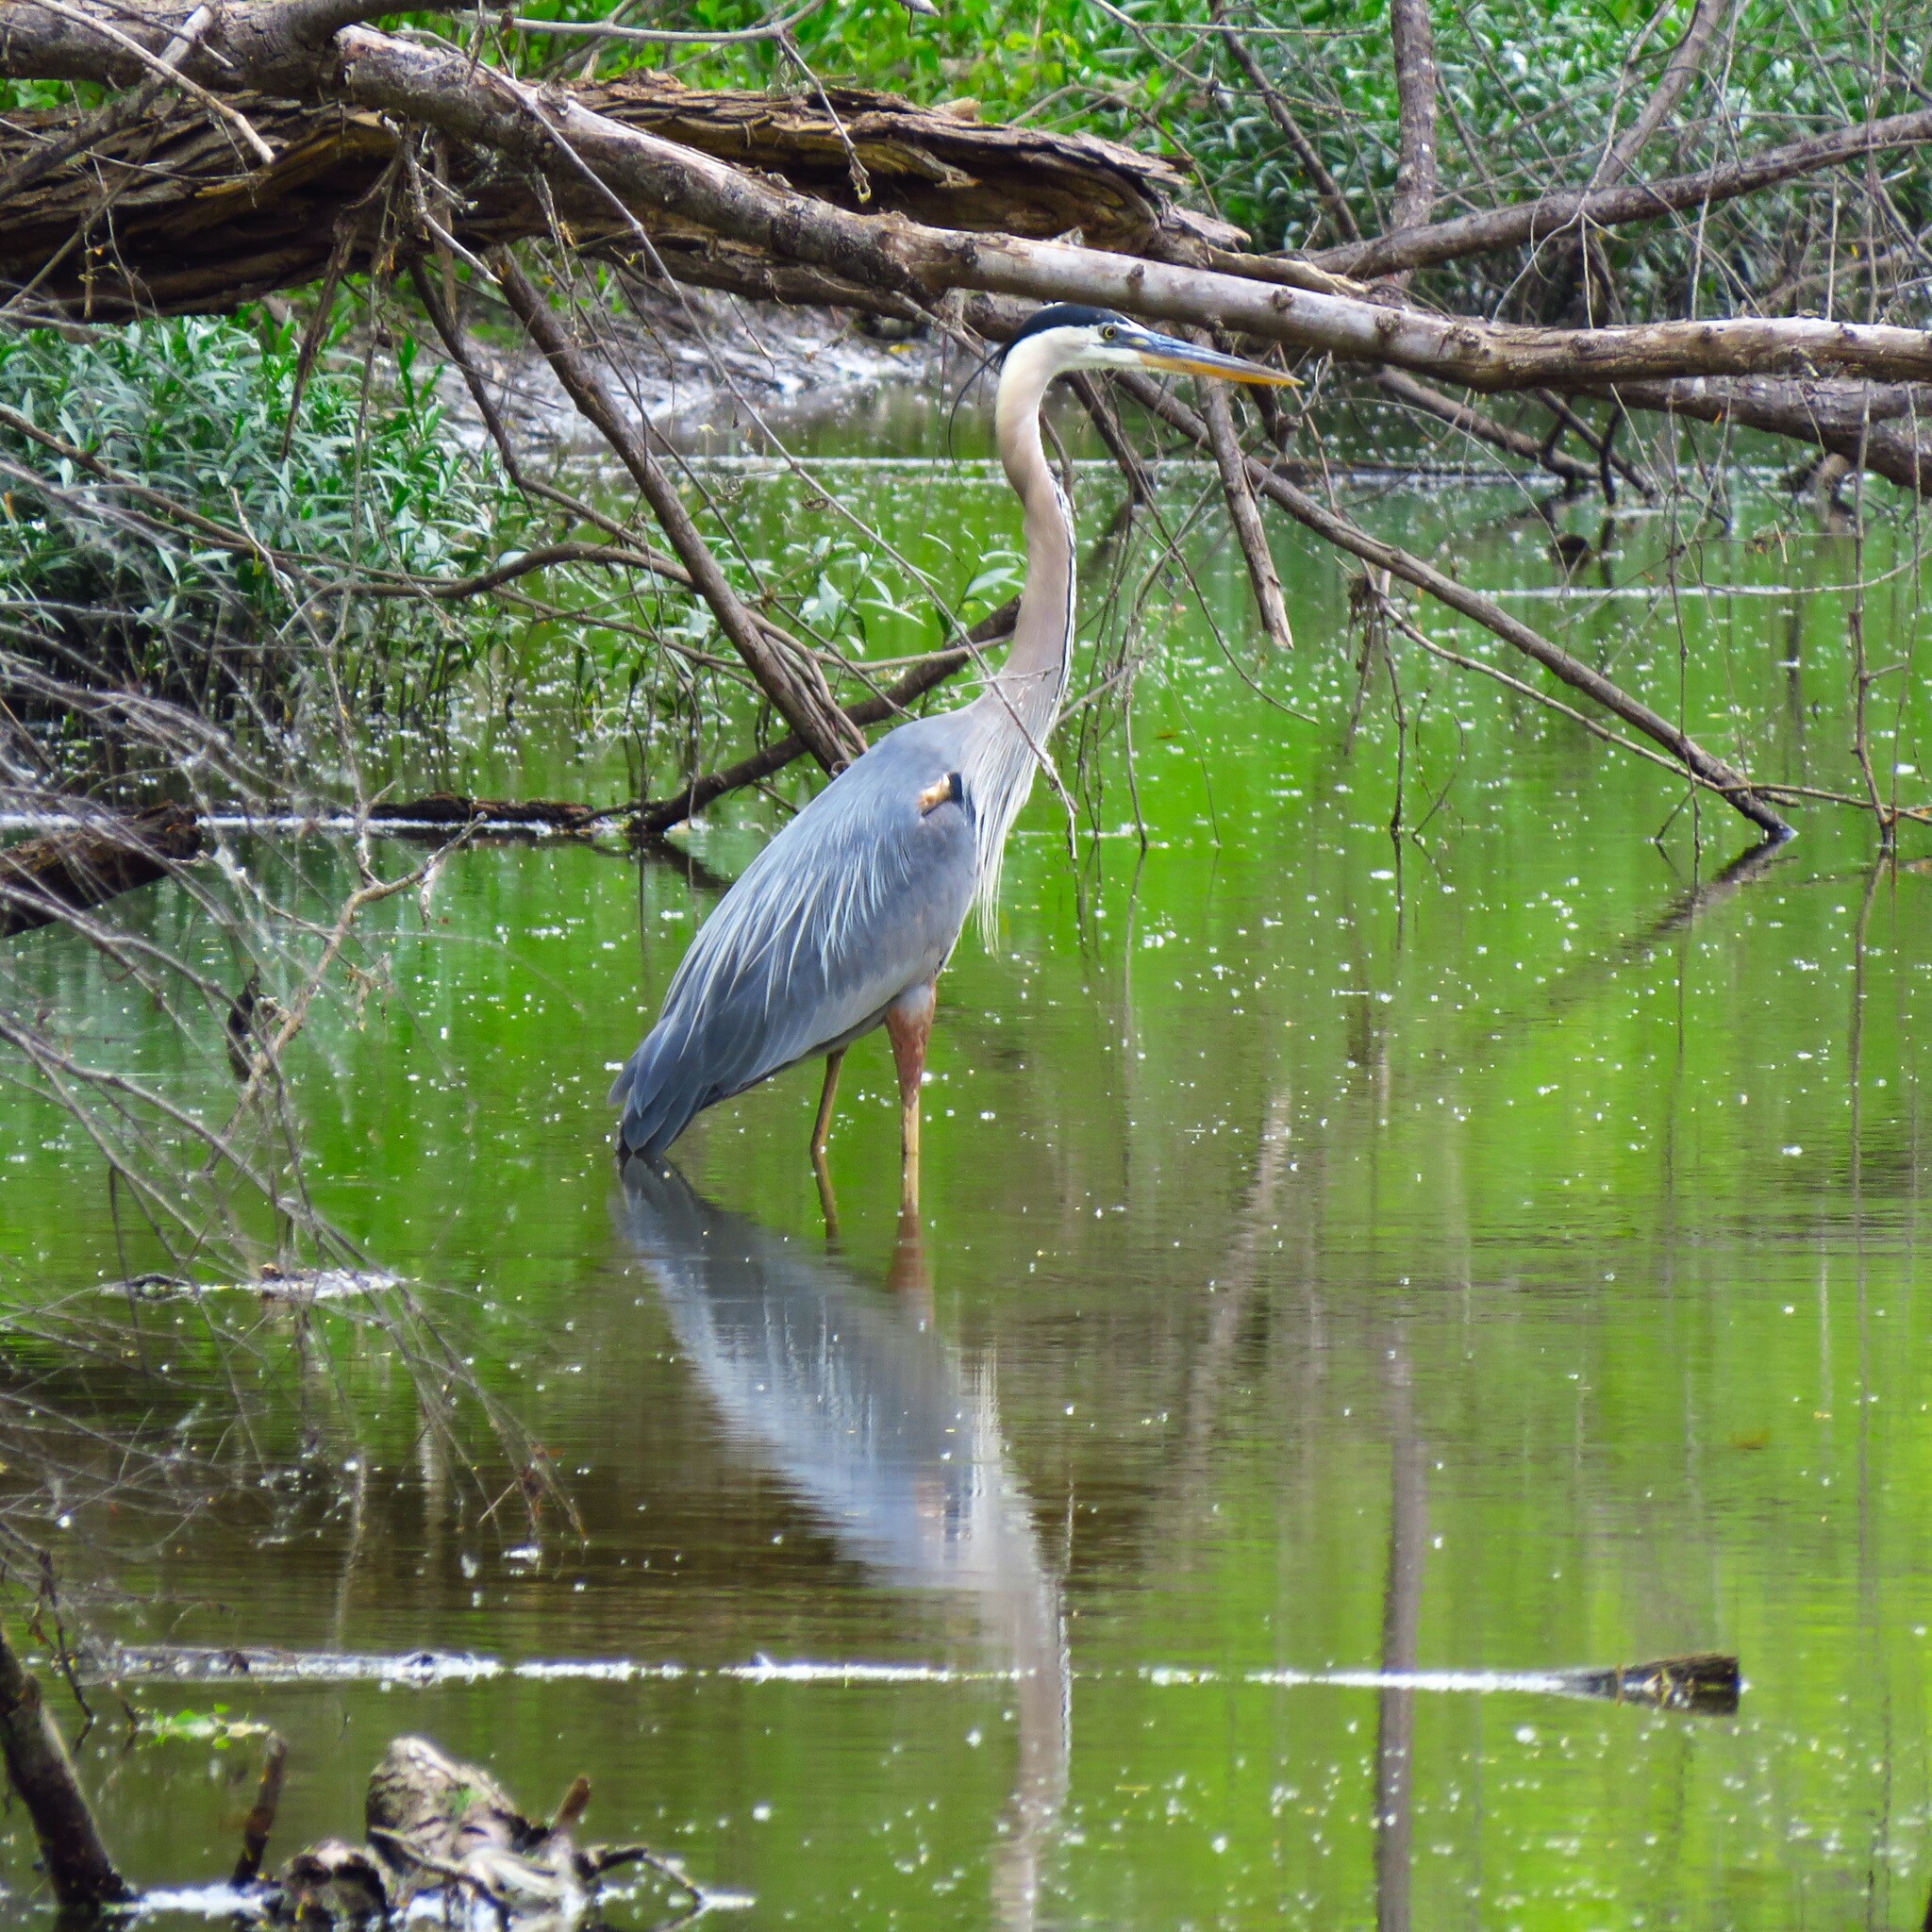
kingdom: Animalia
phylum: Chordata
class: Aves
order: Pelecaniformes
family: Ardeidae
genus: Ardea
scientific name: Ardea herodias
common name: Great blue heron
